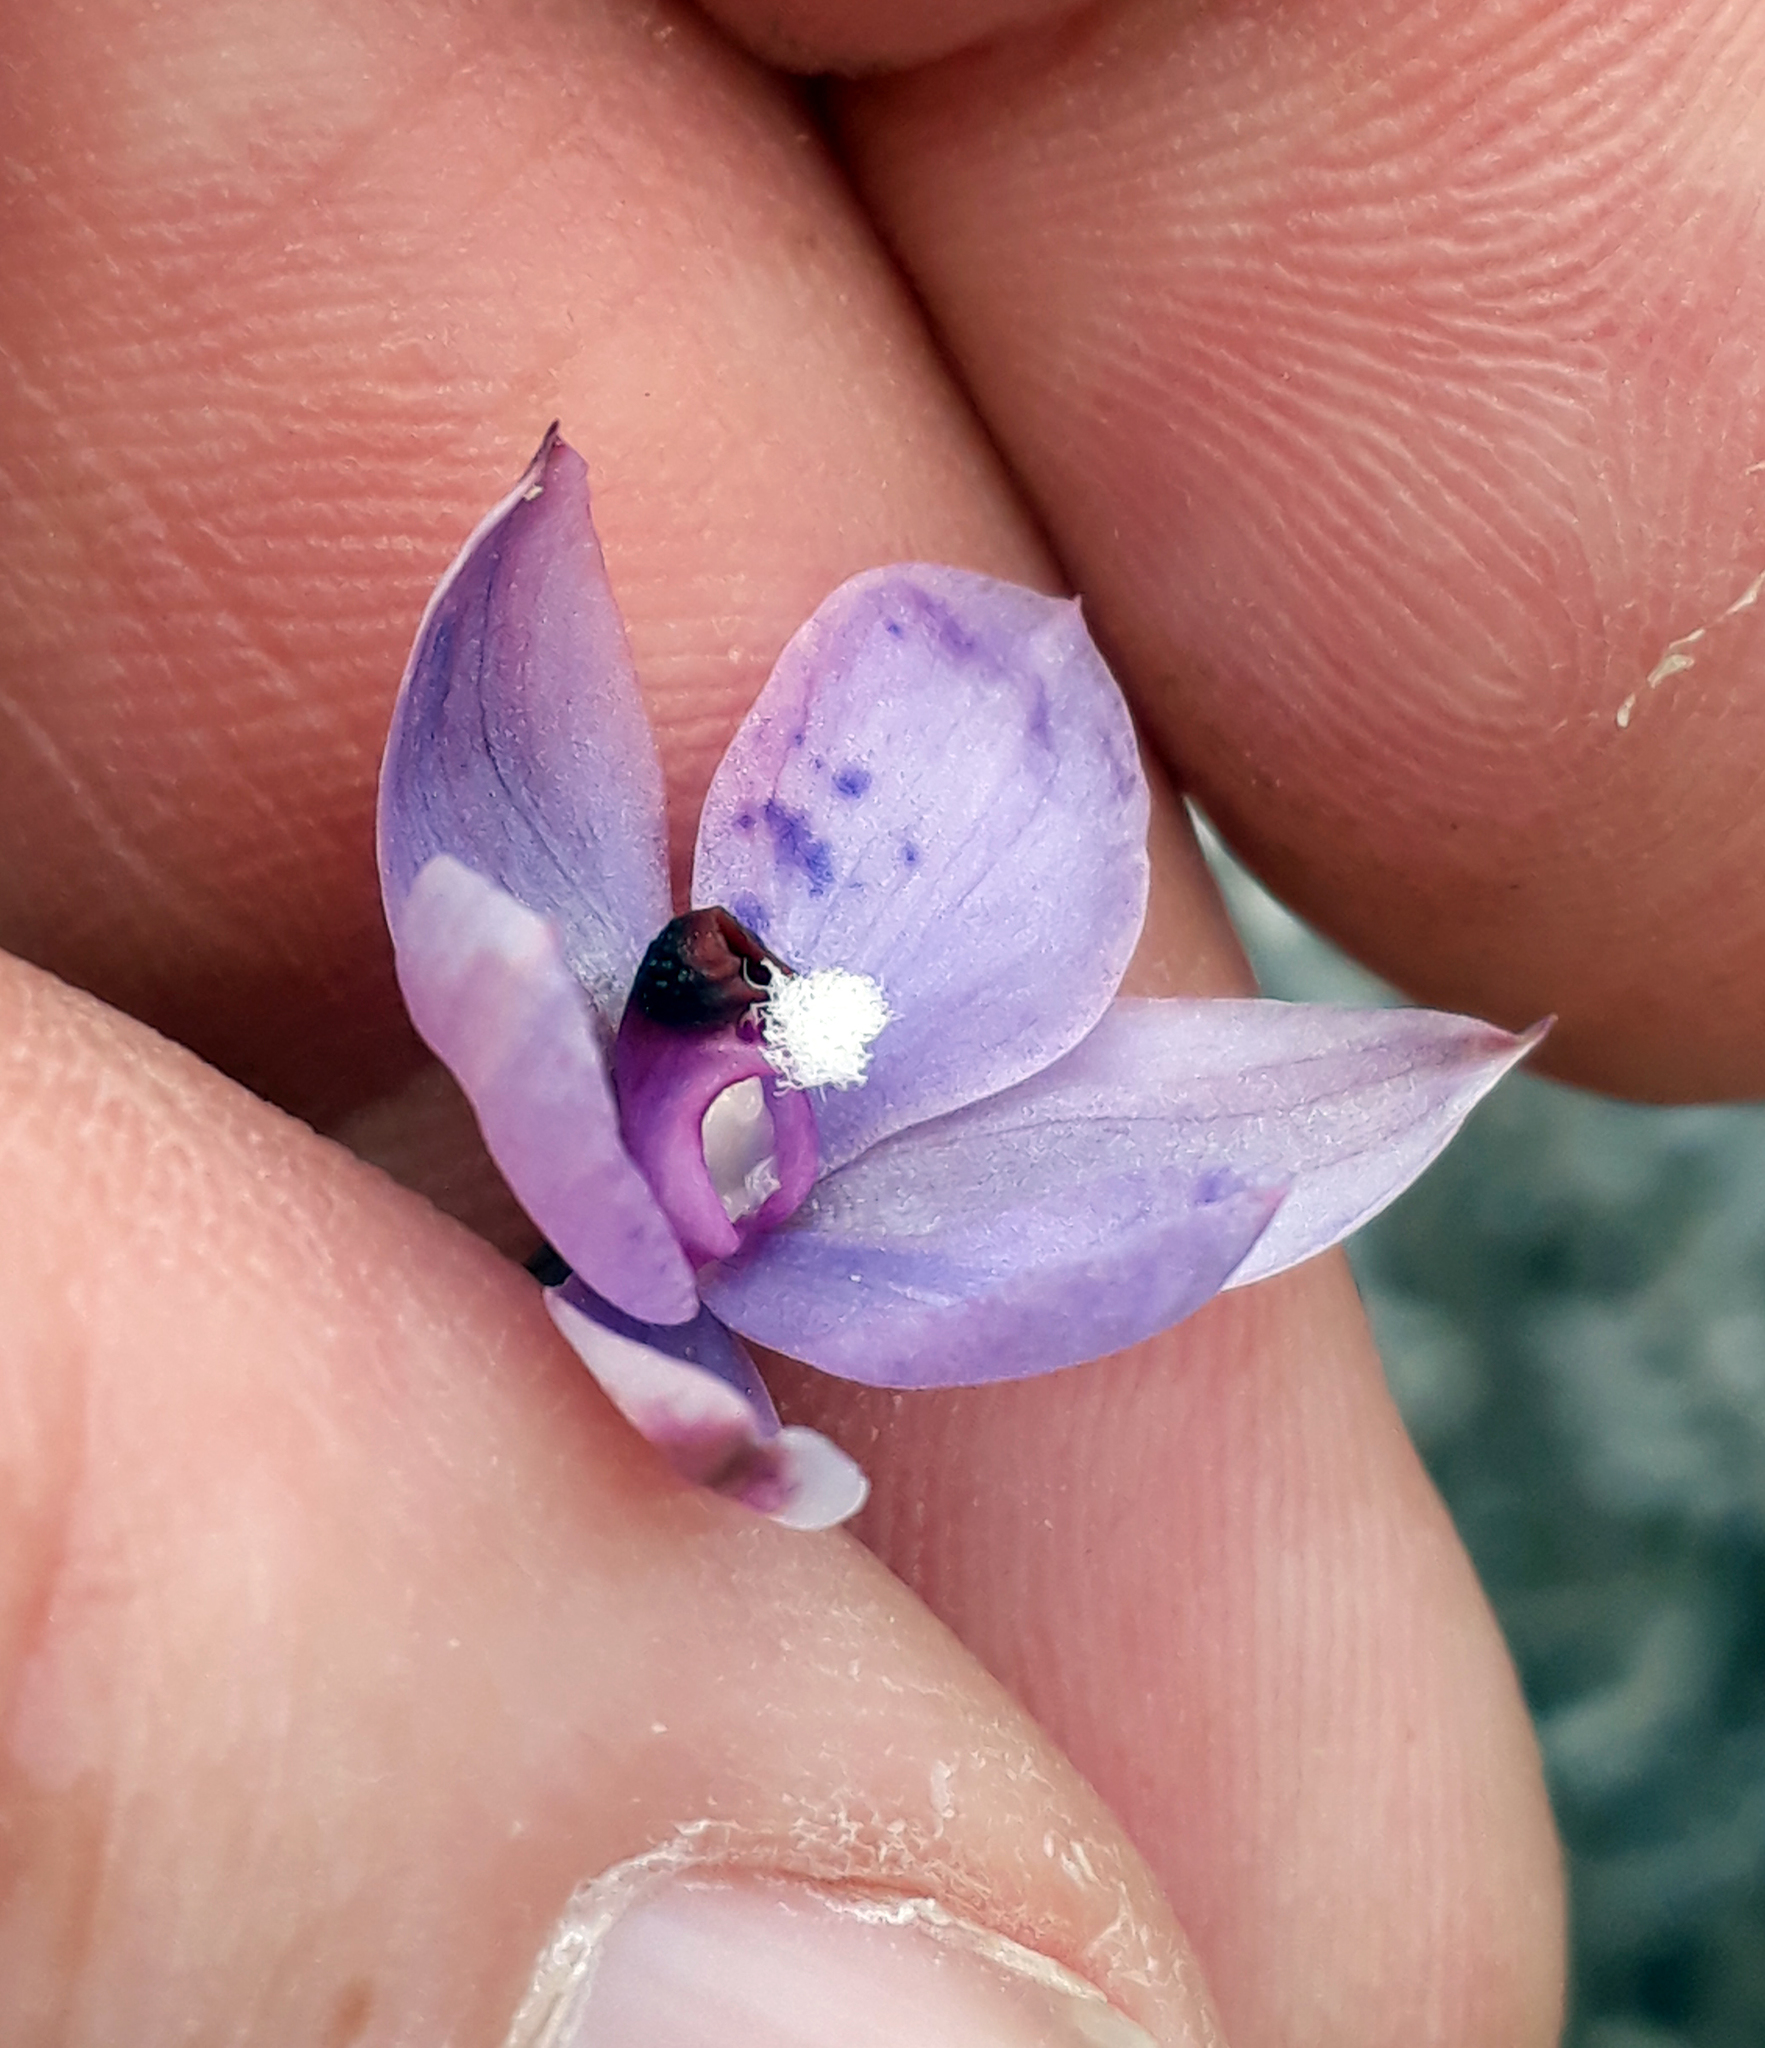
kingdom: Plantae
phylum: Tracheophyta
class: Liliopsida
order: Asparagales
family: Orchidaceae
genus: Thelymitra
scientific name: Thelymitra nervosa
